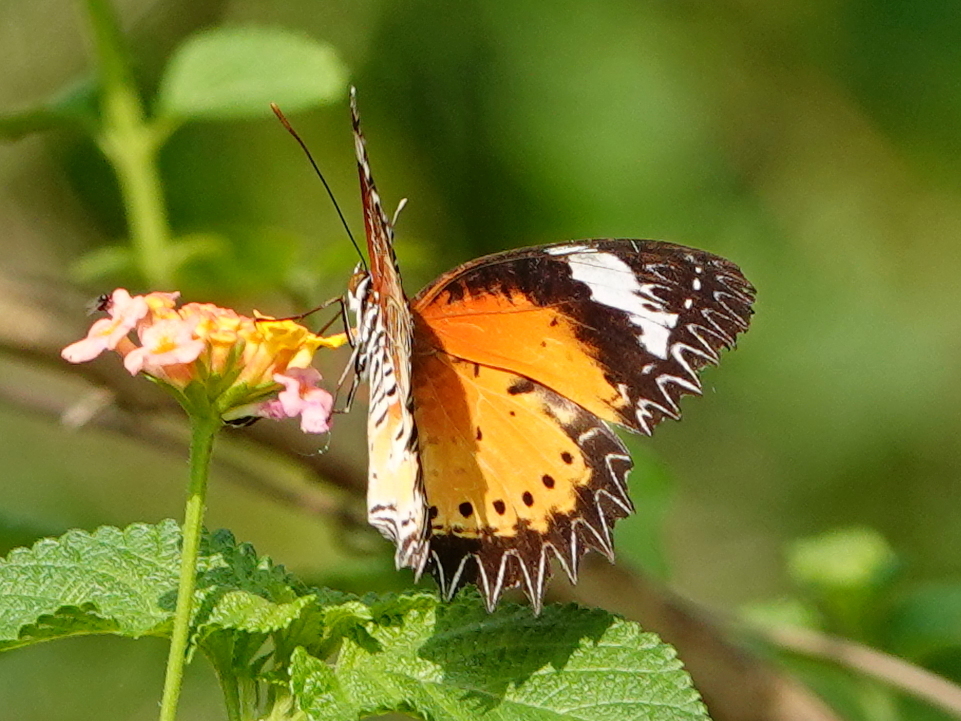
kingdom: Animalia
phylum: Arthropoda
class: Insecta
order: Lepidoptera
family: Nymphalidae
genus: Cethosia
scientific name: Cethosia cyane
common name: Leopard lacewing butterfly
